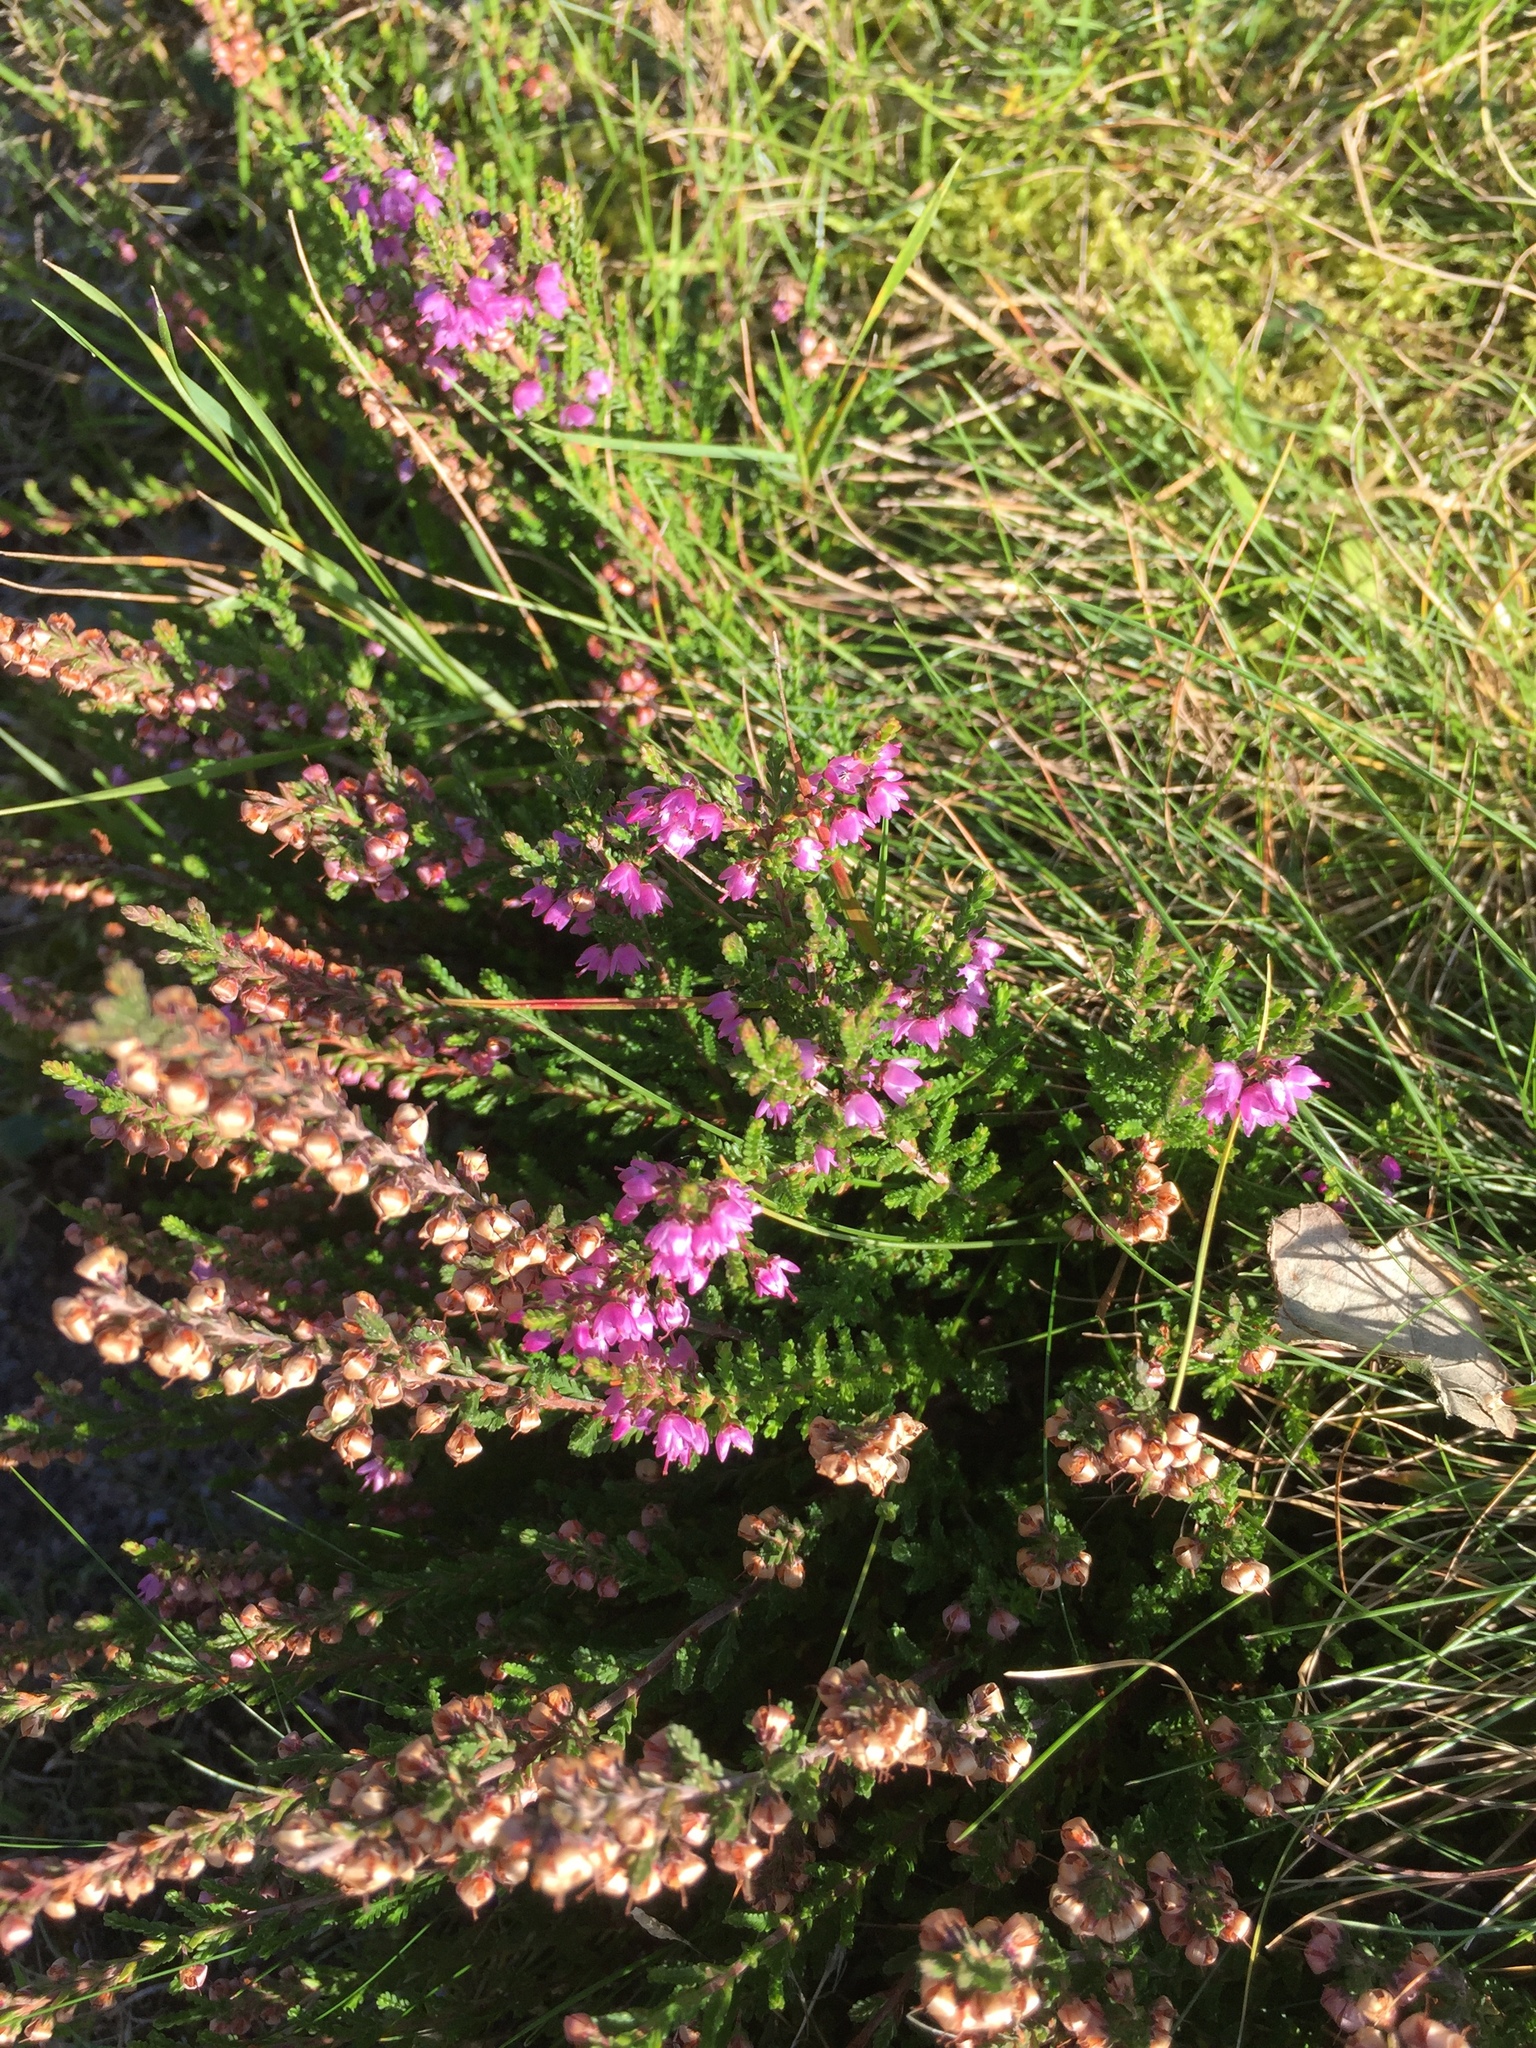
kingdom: Plantae
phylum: Tracheophyta
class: Magnoliopsida
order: Ericales
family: Ericaceae
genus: Calluna
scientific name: Calluna vulgaris
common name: Heather
